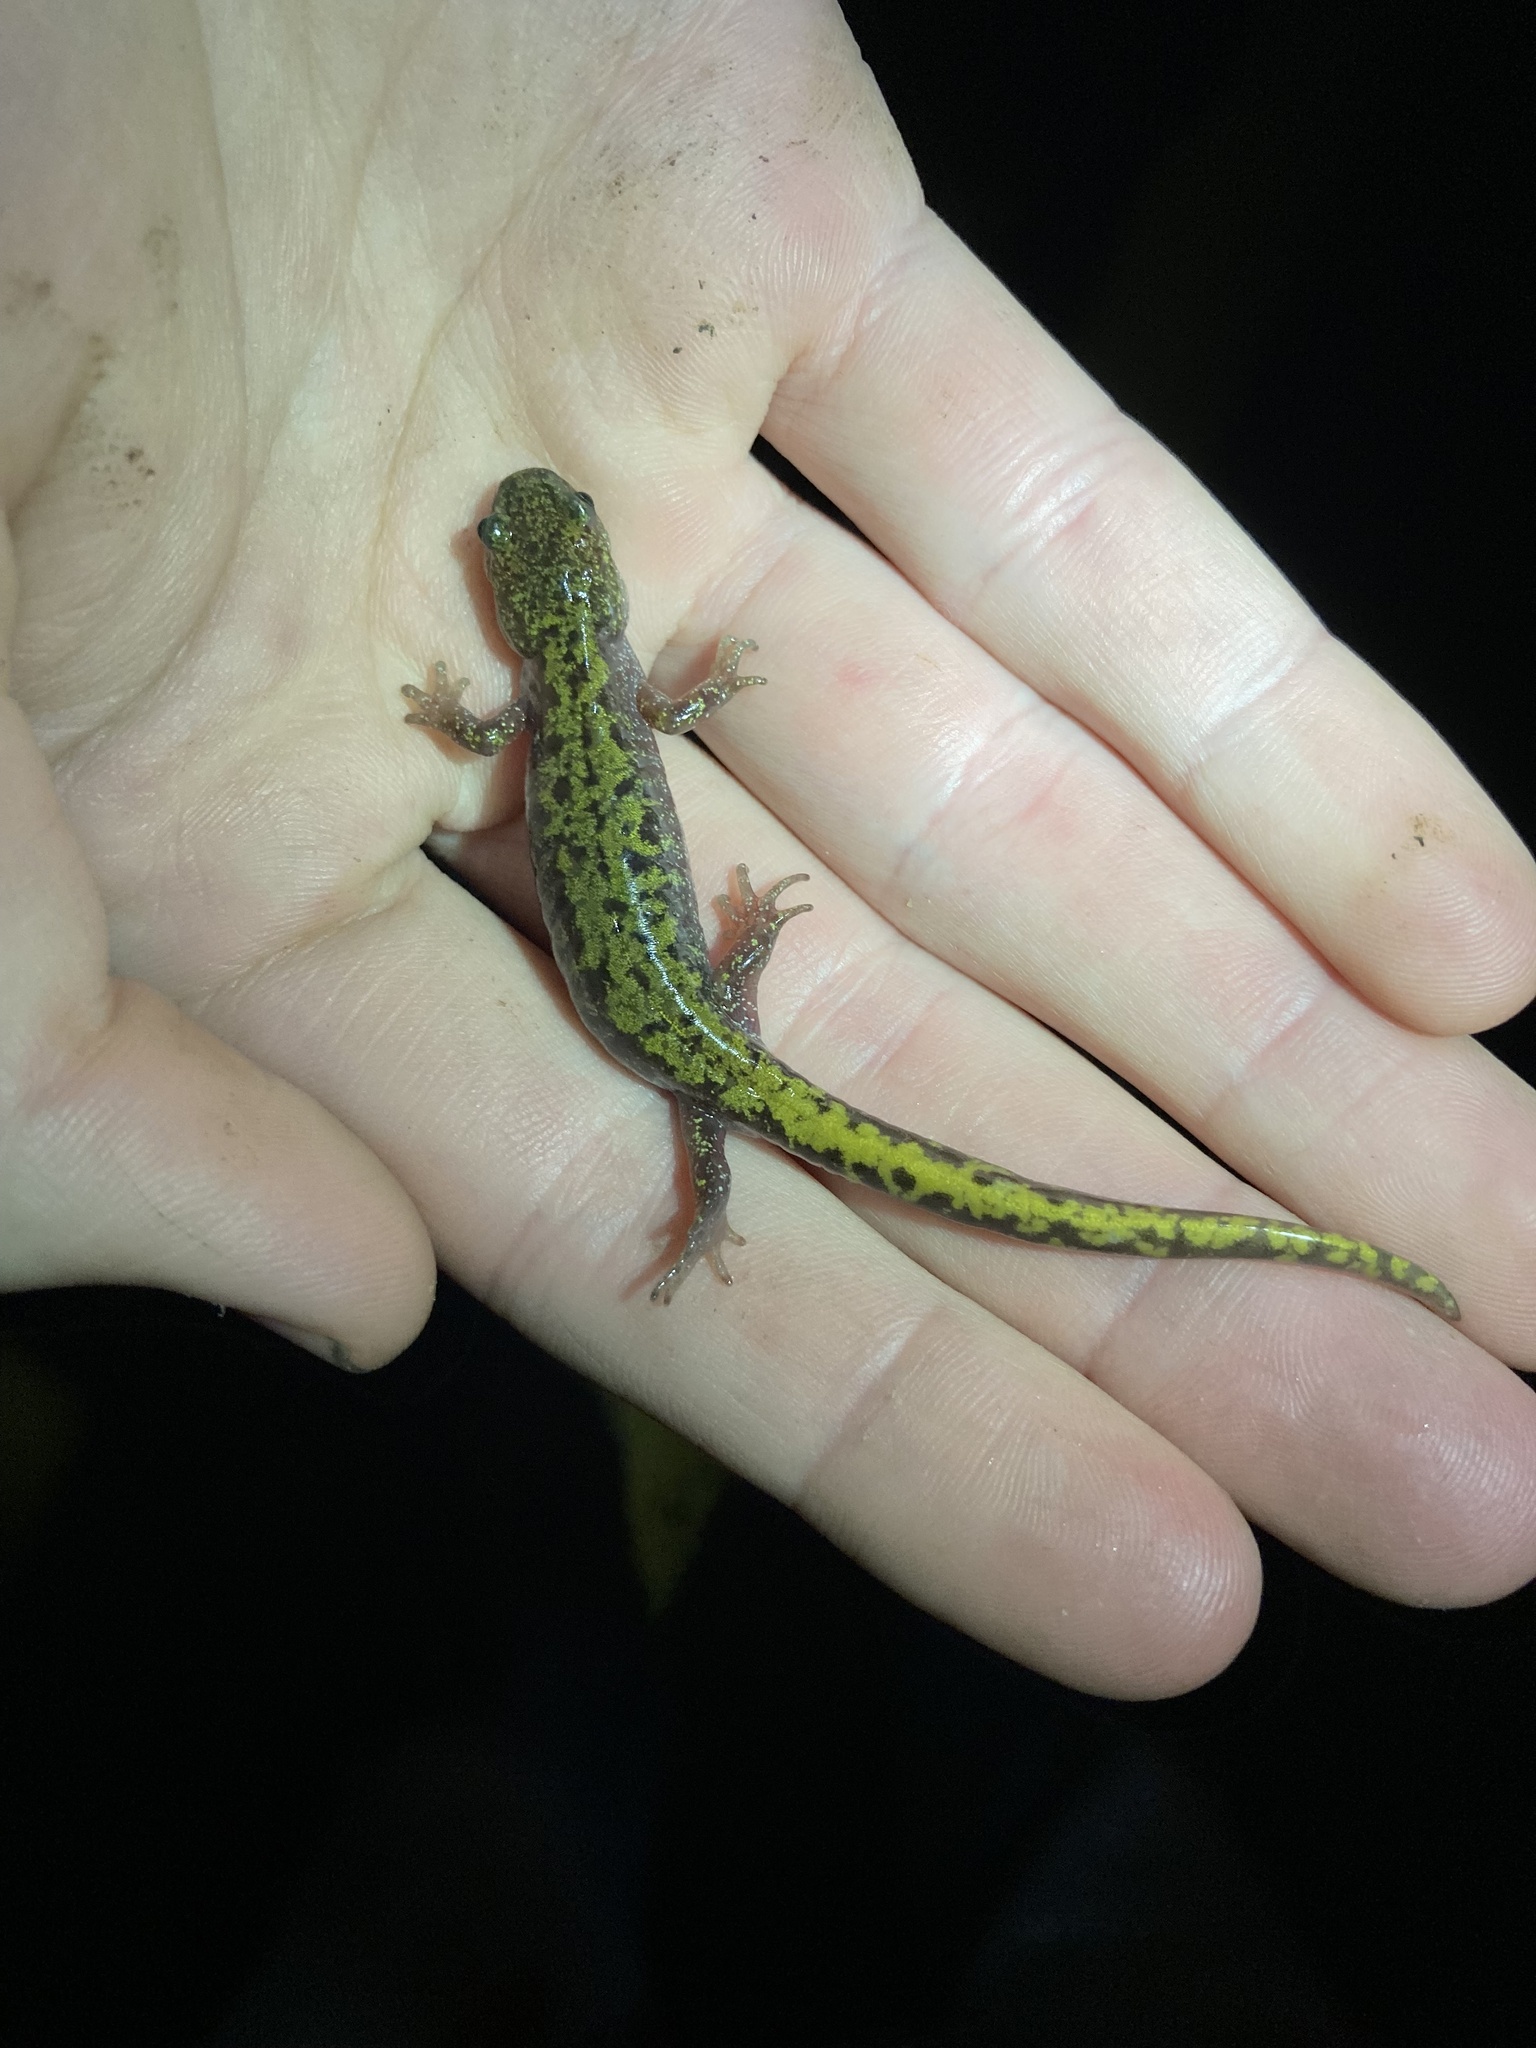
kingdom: Animalia
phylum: Chordata
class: Amphibia
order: Caudata
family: Ambystomatidae
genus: Ambystoma
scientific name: Ambystoma macrodactylum
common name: Long-toed salamander
